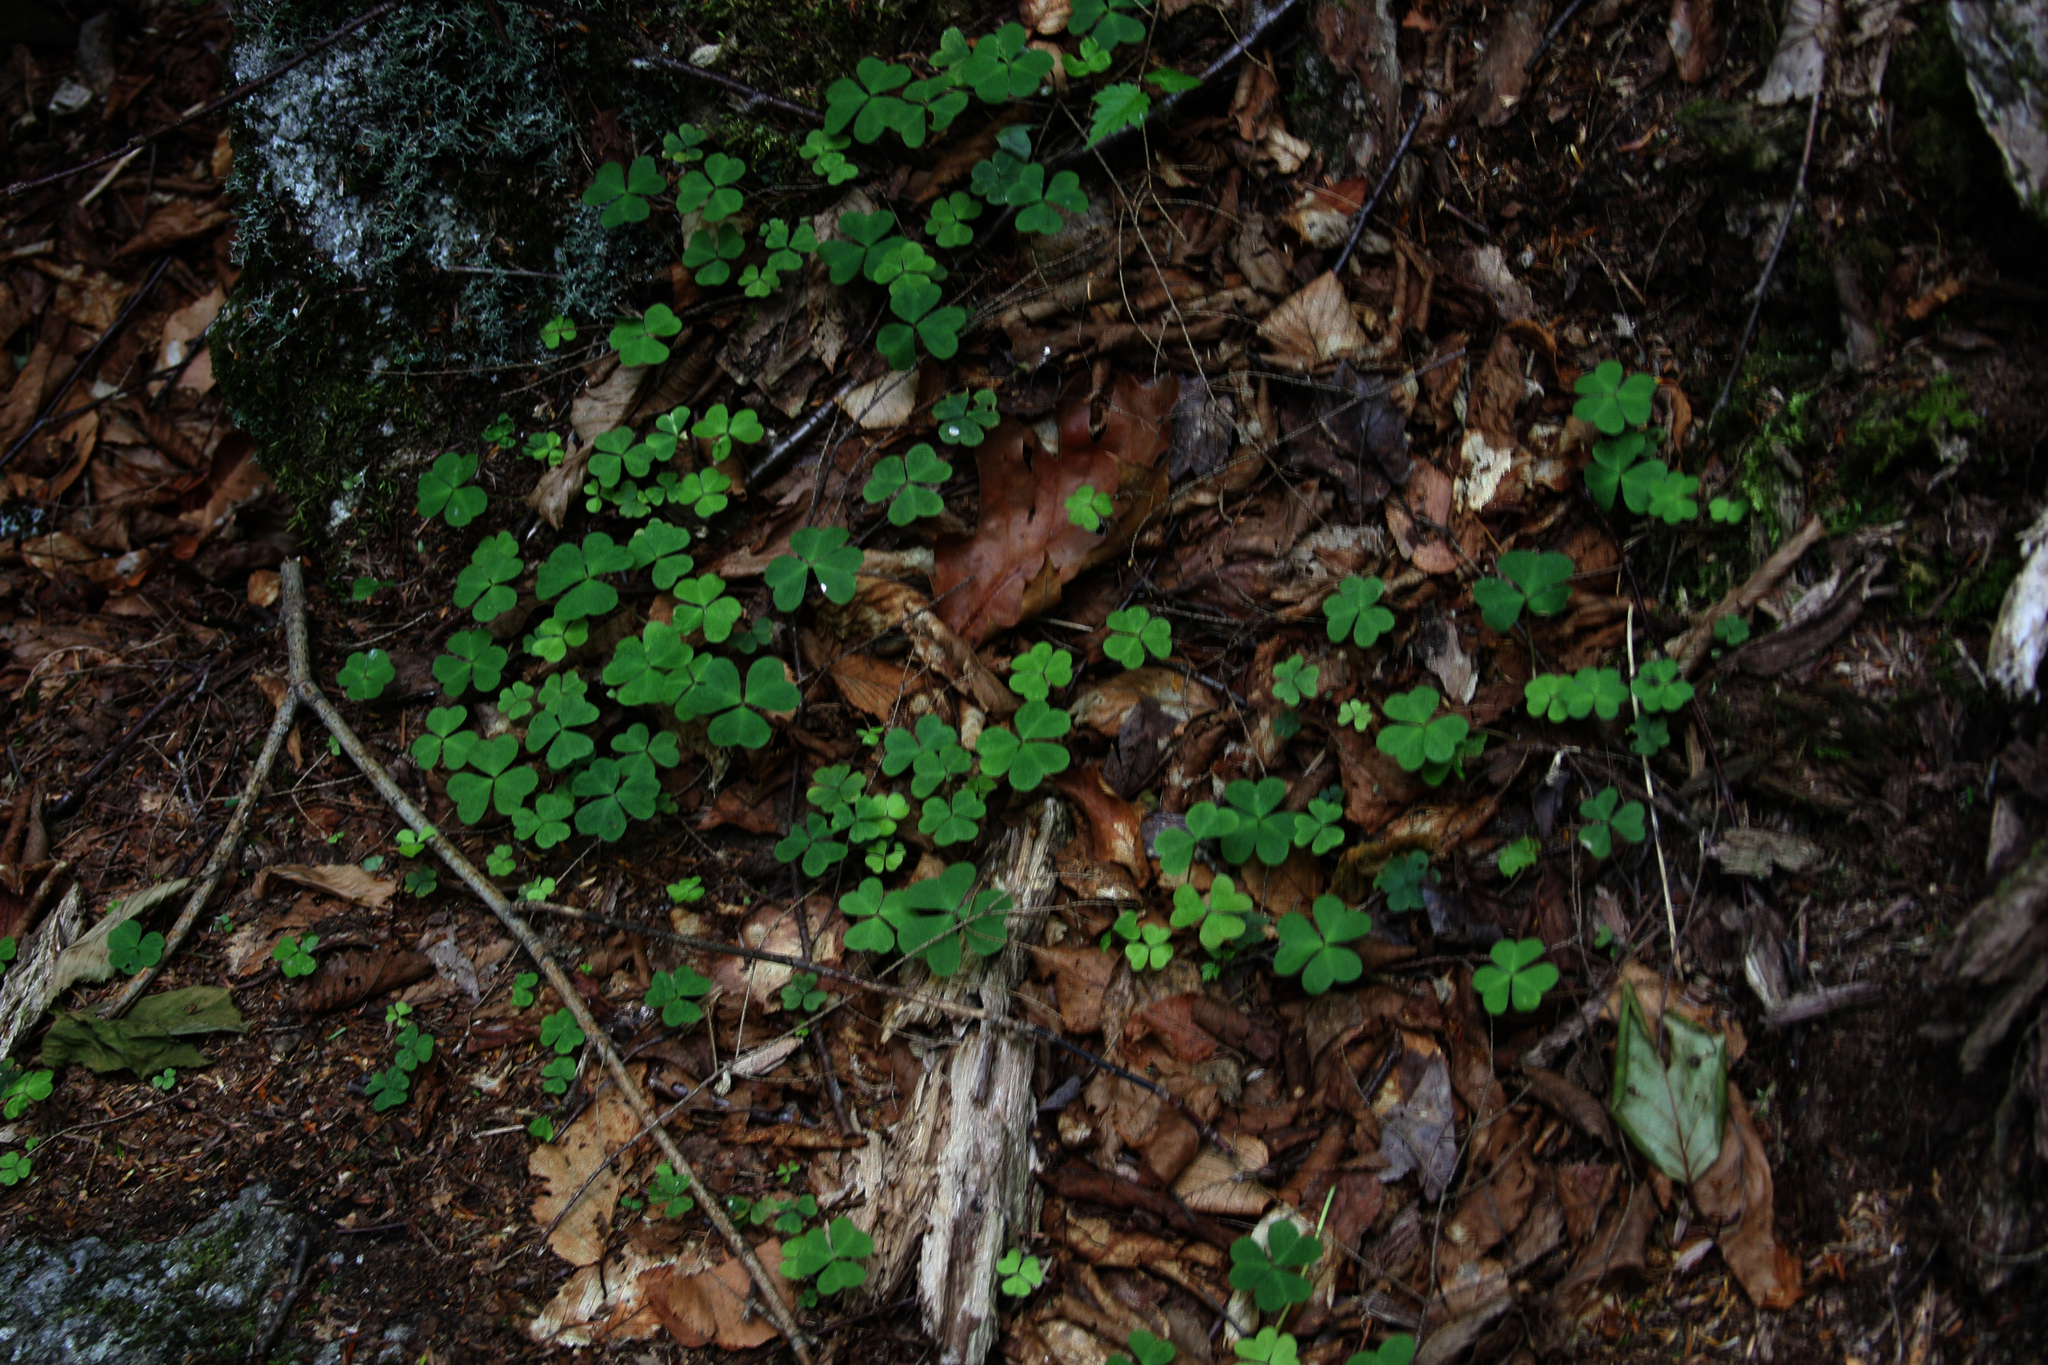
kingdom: Plantae
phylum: Tracheophyta
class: Magnoliopsida
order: Oxalidales
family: Oxalidaceae
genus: Oxalis
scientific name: Oxalis montana
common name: American wood-sorrel
